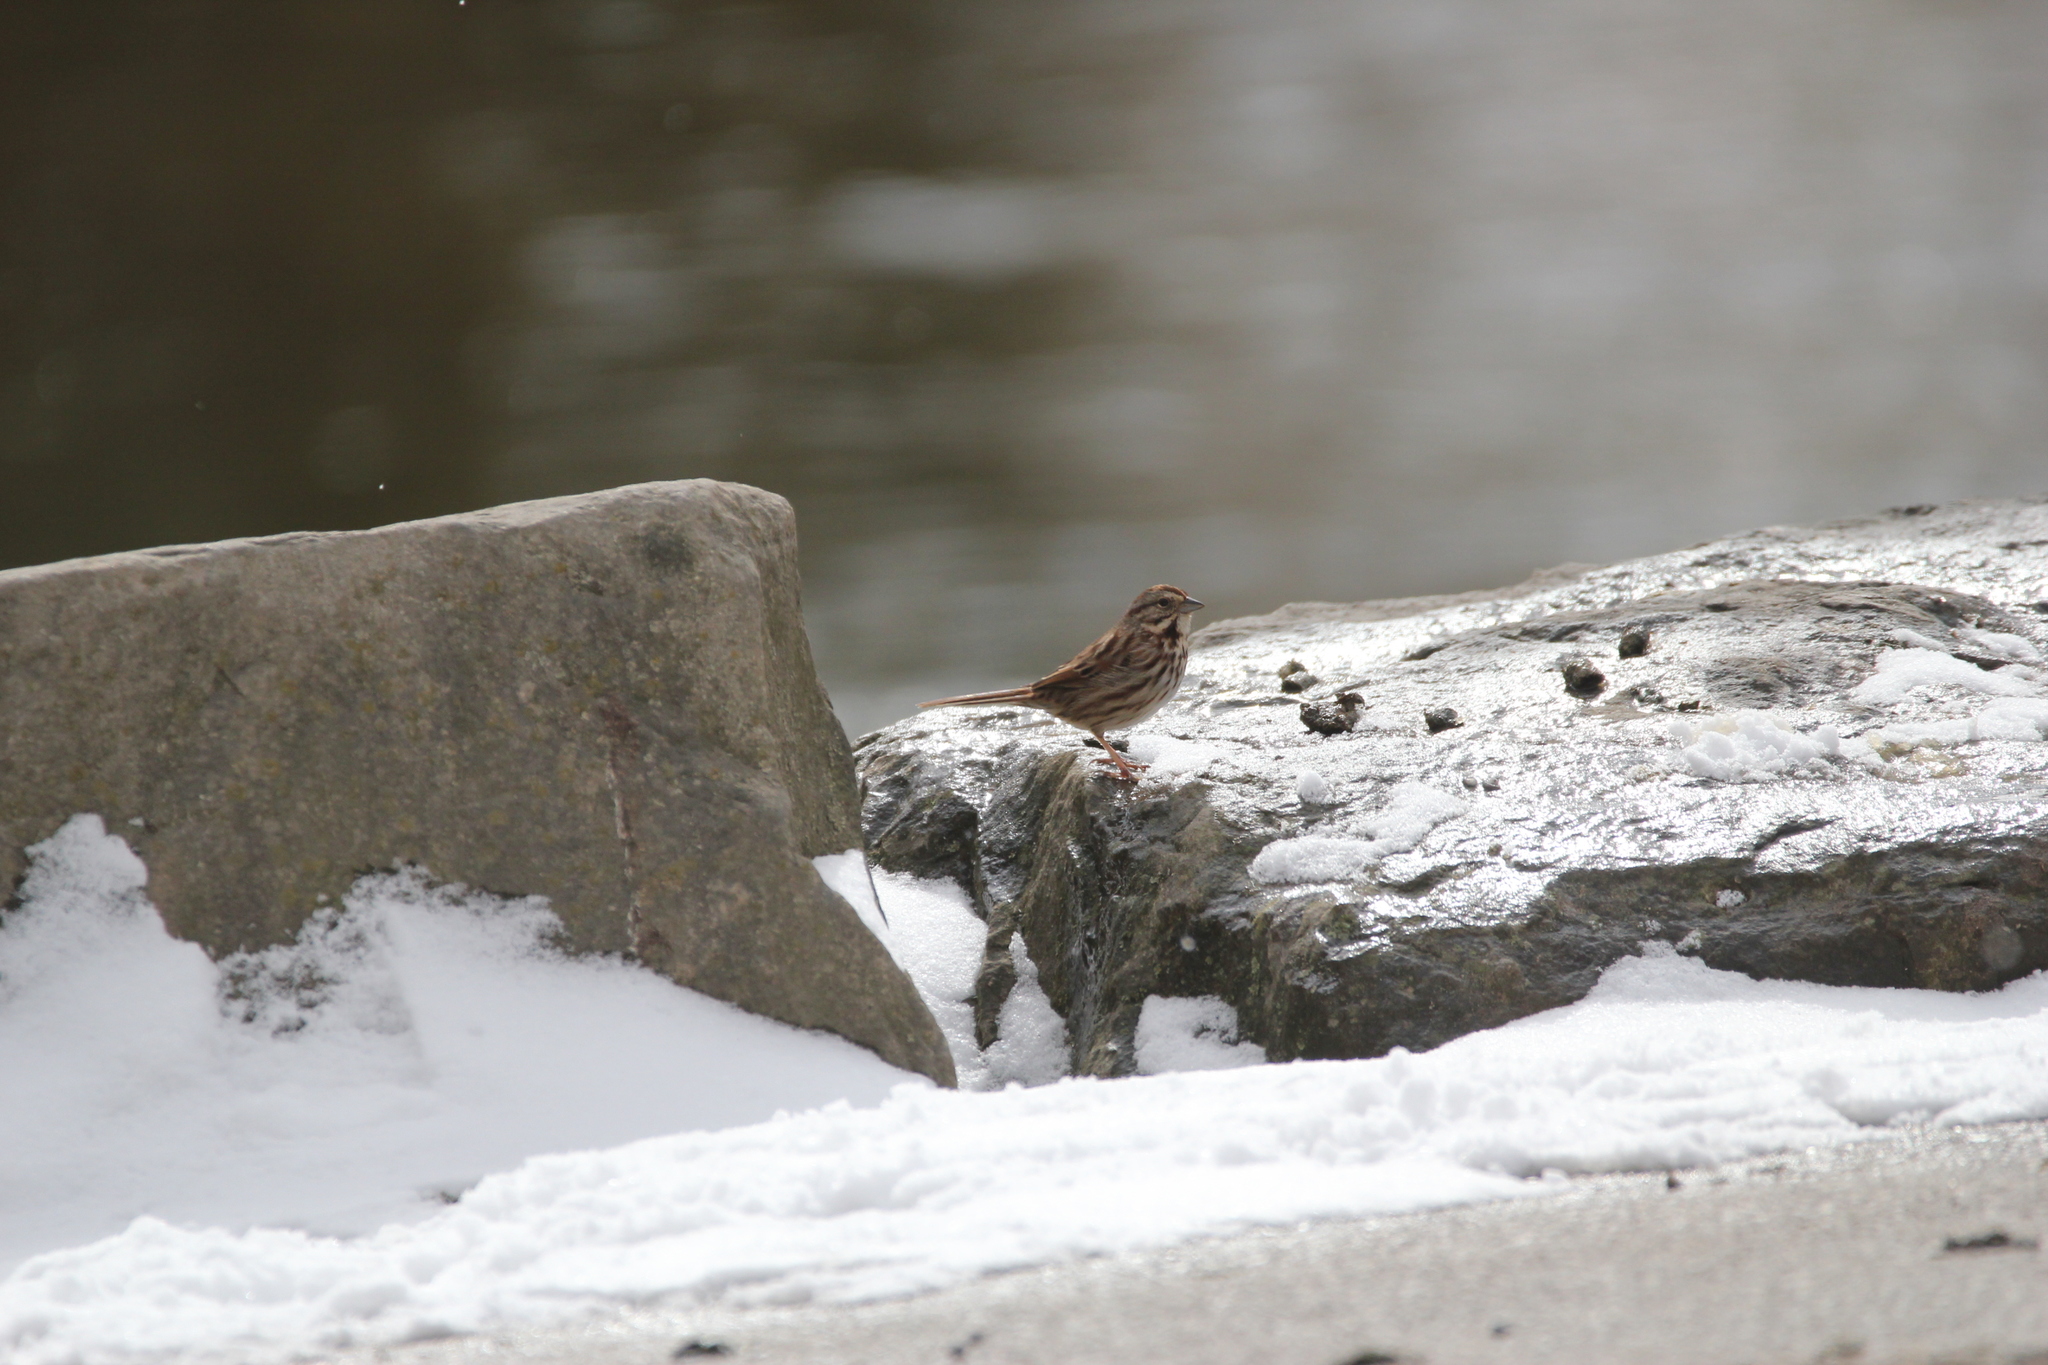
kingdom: Animalia
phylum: Chordata
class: Aves
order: Passeriformes
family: Passerellidae
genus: Melospiza
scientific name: Melospiza melodia
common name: Song sparrow
